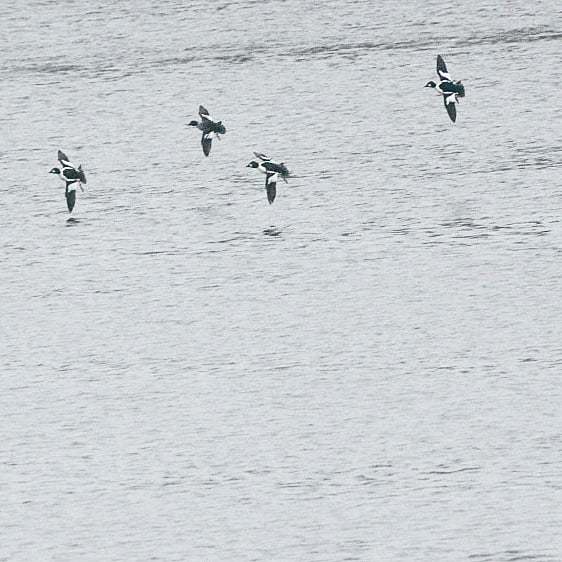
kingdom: Animalia
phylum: Chordata
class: Aves
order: Anseriformes
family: Anatidae
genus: Bucephala
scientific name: Bucephala clangula
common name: Common goldeneye
